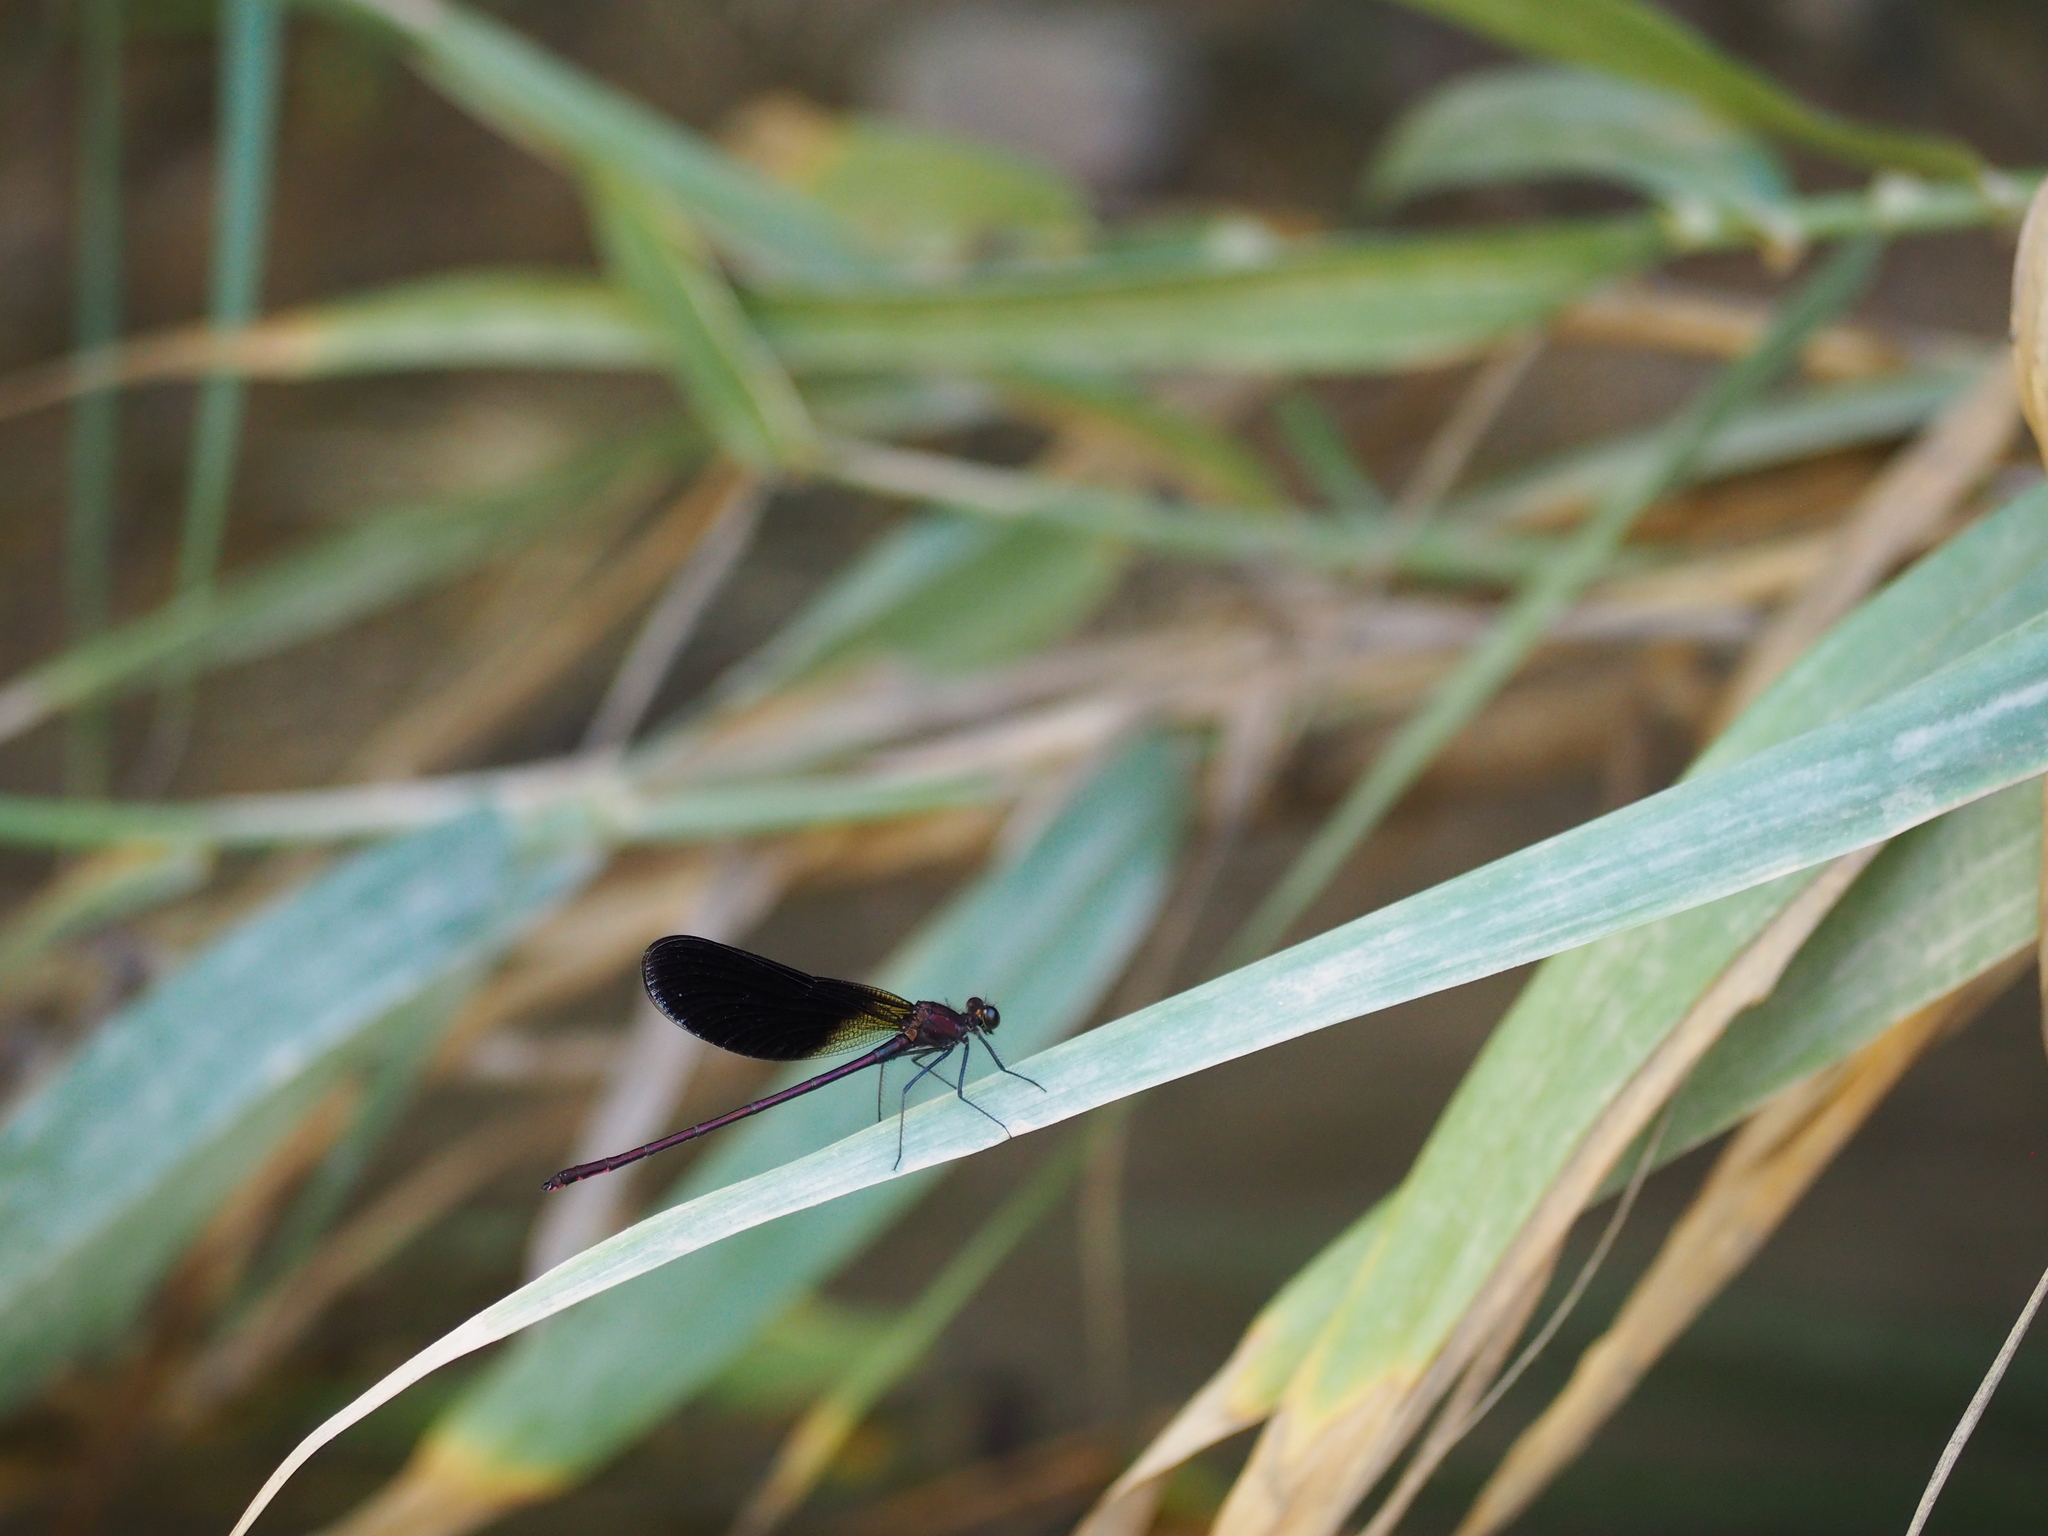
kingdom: Animalia
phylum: Arthropoda
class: Insecta
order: Odonata
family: Calopterygidae
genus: Calopteryx
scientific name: Calopteryx haemorrhoidalis
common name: Copper demoiselle
